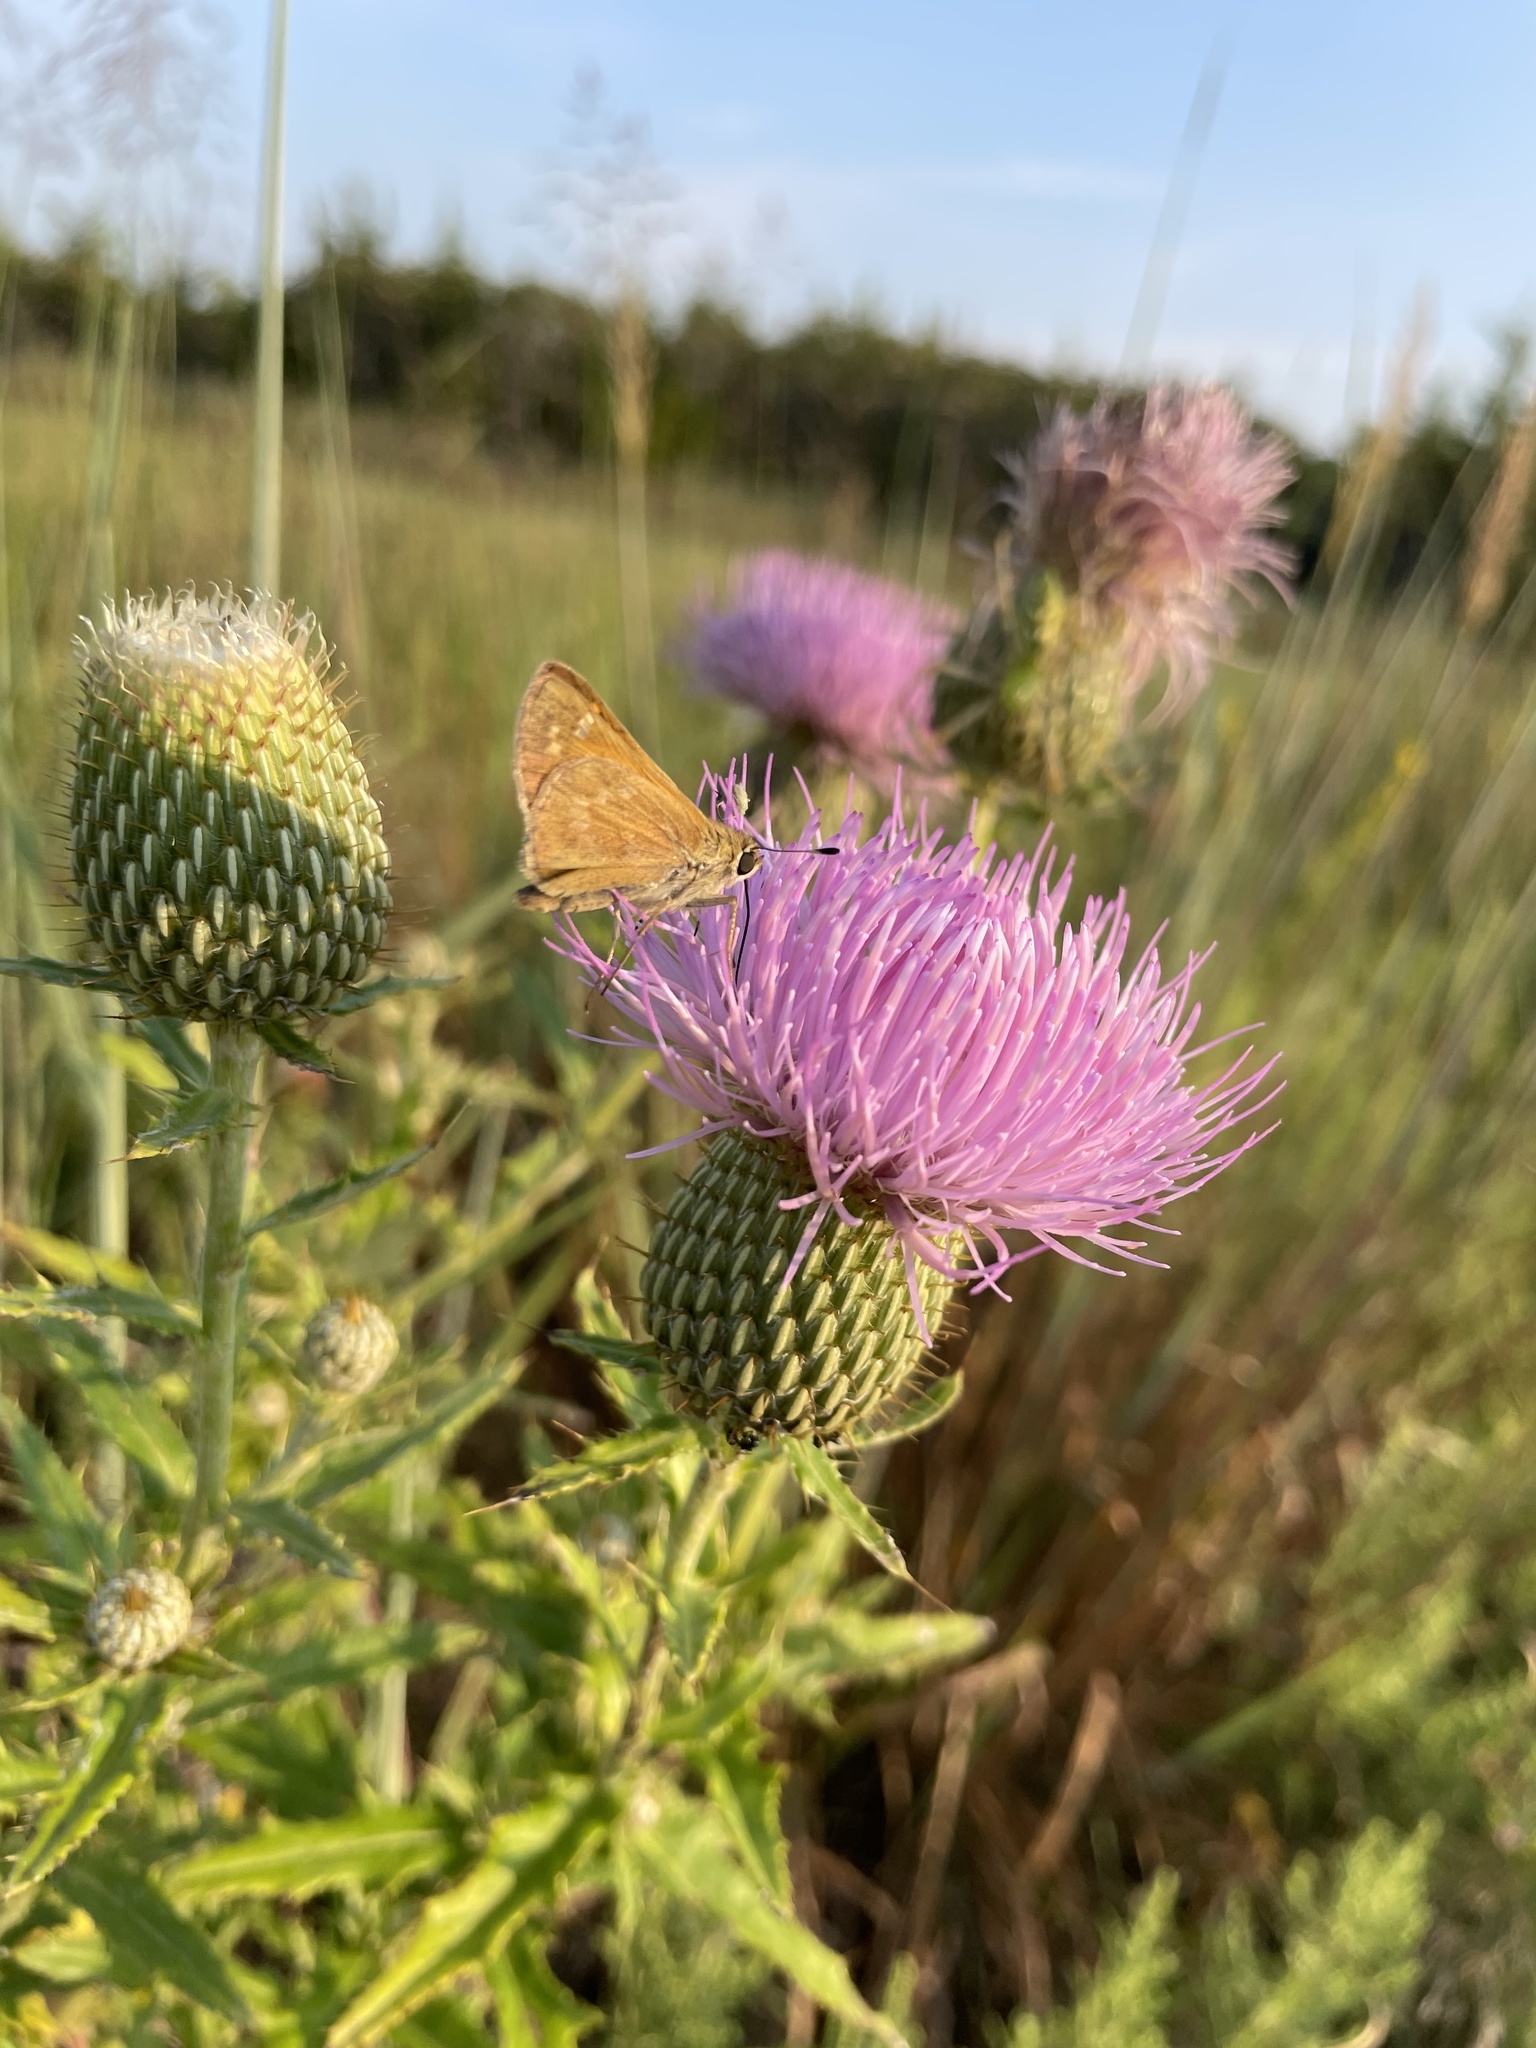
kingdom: Animalia
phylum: Arthropoda
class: Insecta
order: Lepidoptera
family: Hesperiidae
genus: Atalopedes
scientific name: Atalopedes
